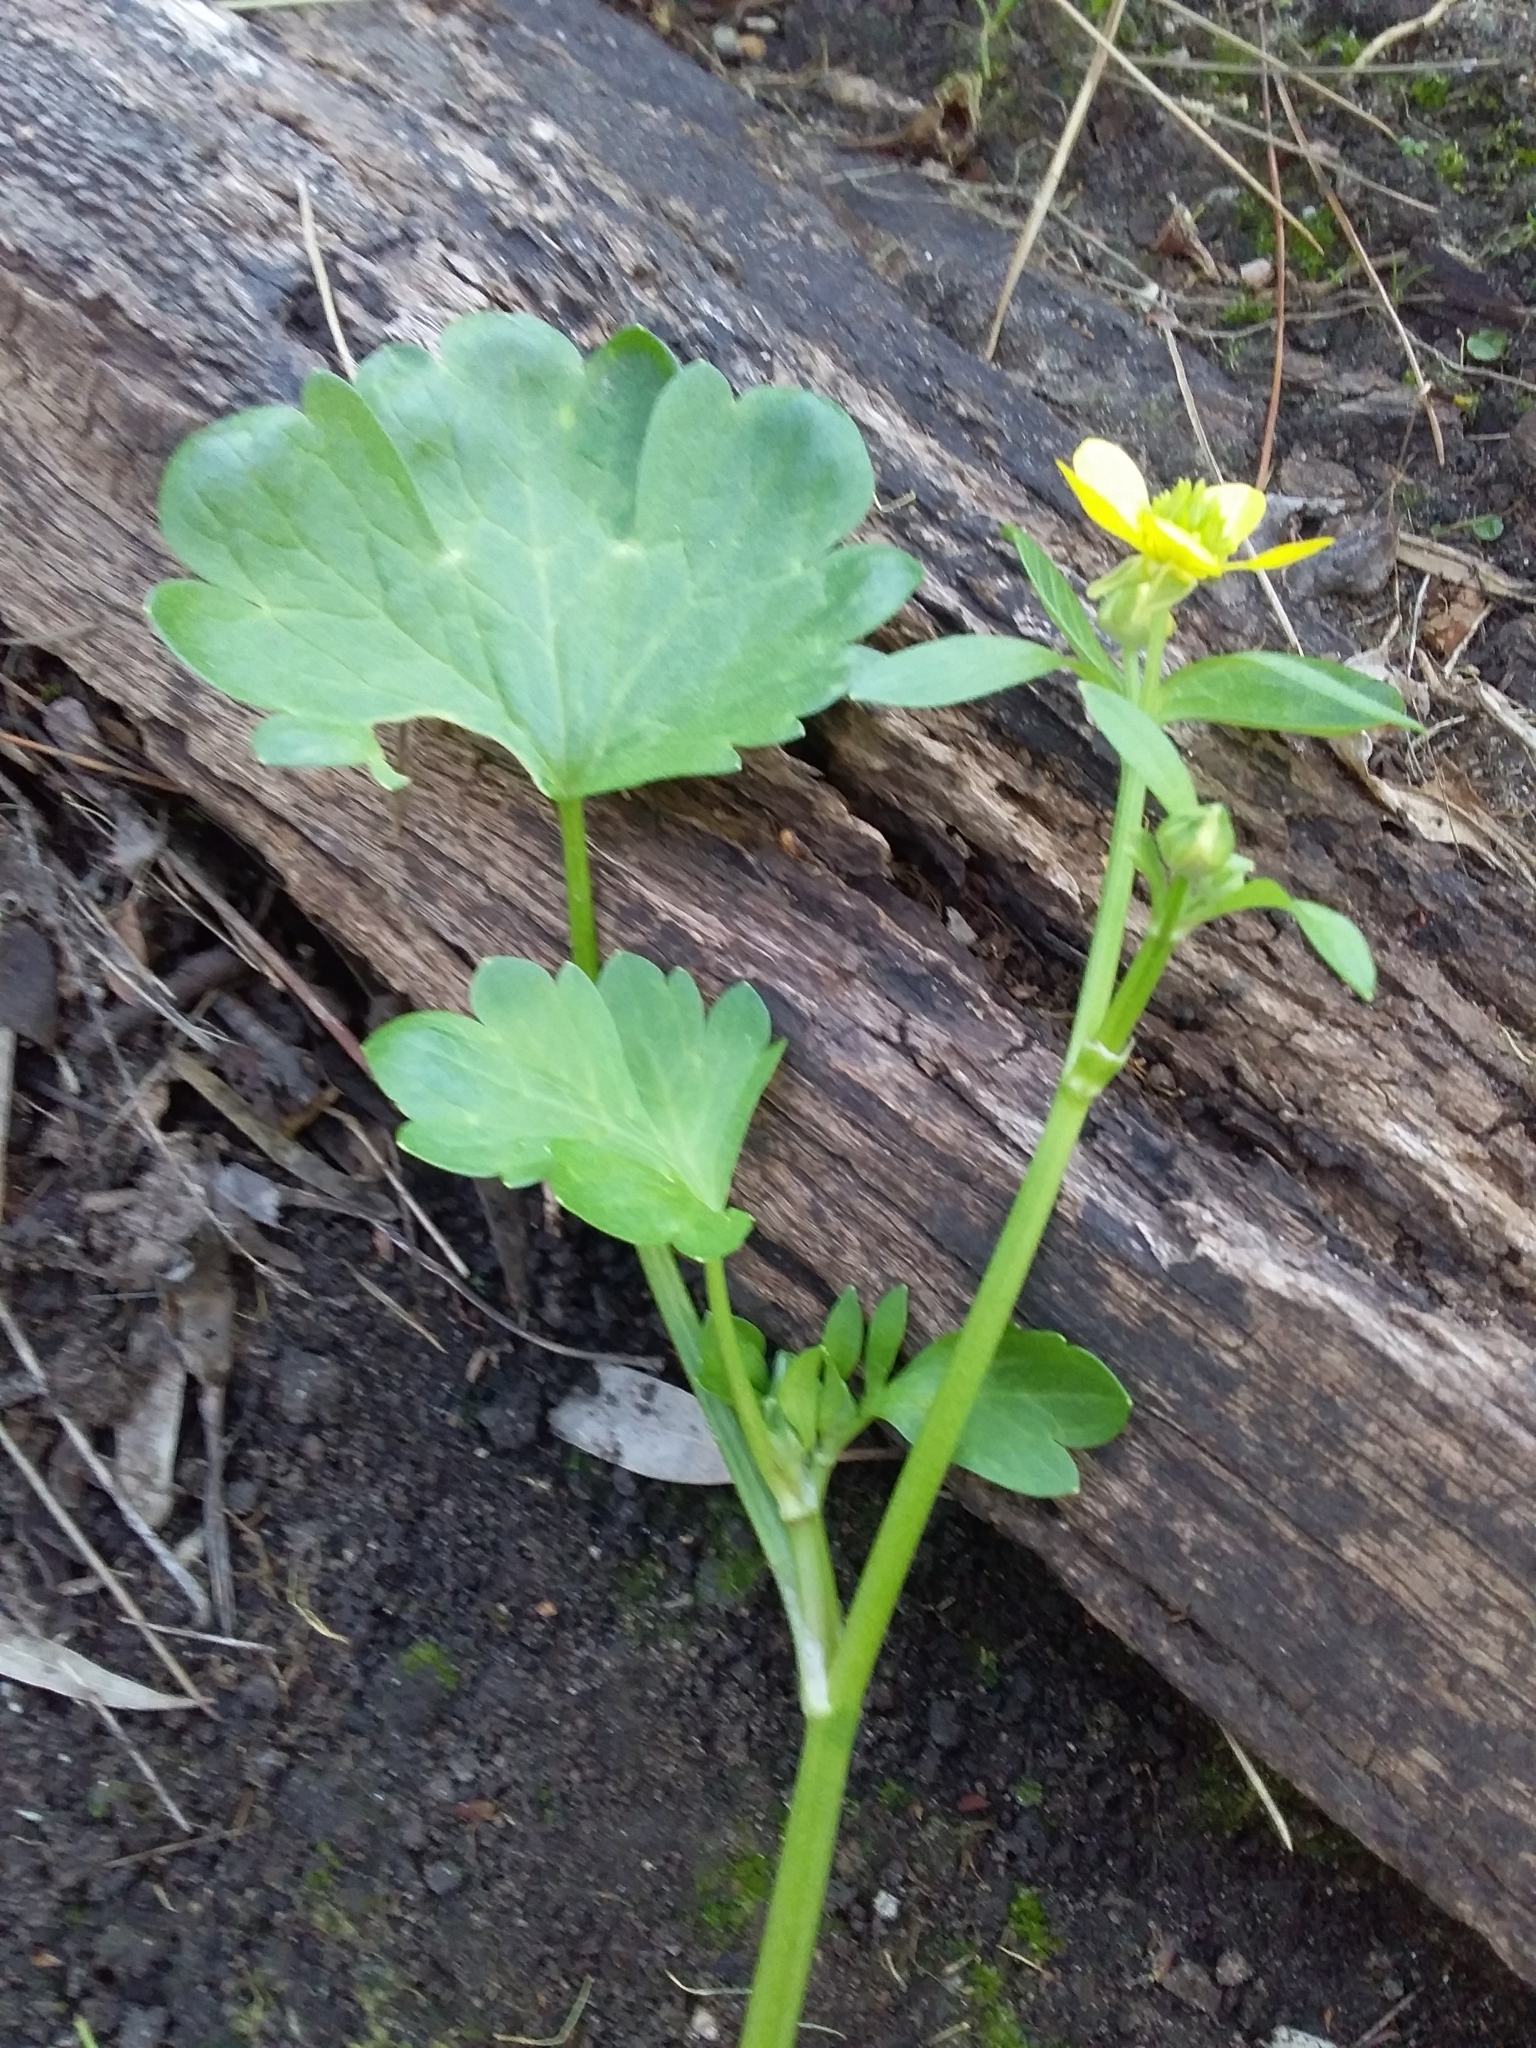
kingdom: Plantae
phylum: Tracheophyta
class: Magnoliopsida
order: Ranunculales
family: Ranunculaceae
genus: Ranunculus
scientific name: Ranunculus muricatus
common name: Rough-fruited buttercup
